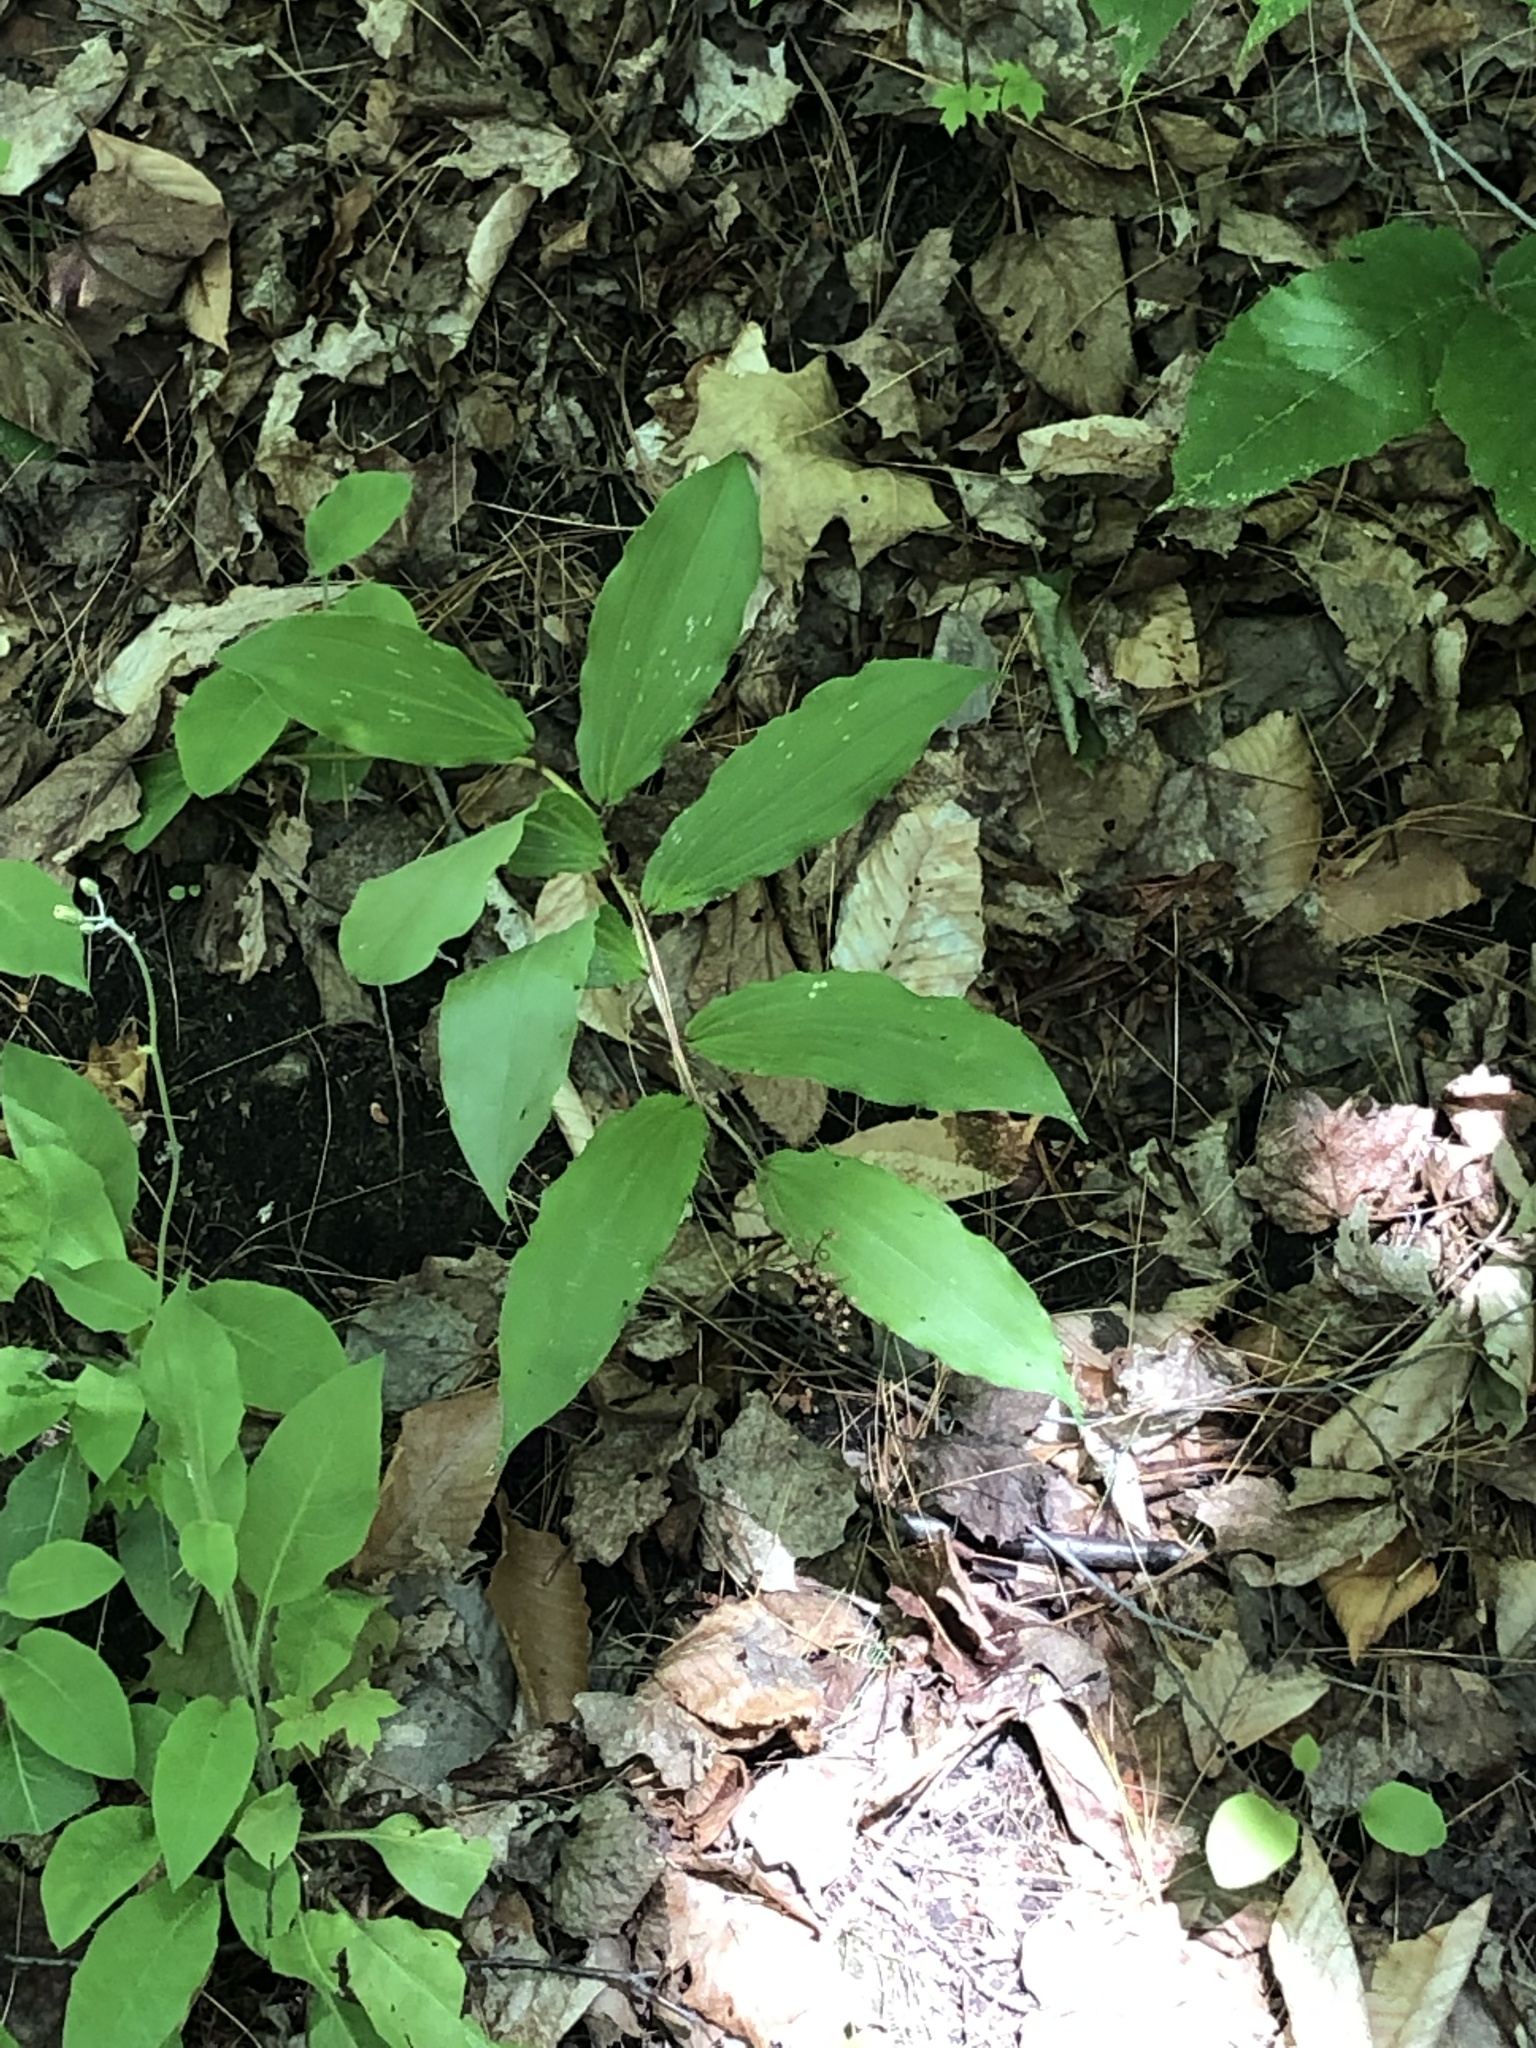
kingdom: Plantae
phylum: Tracheophyta
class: Liliopsida
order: Asparagales
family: Asparagaceae
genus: Maianthemum
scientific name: Maianthemum racemosum
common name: False spikenard
